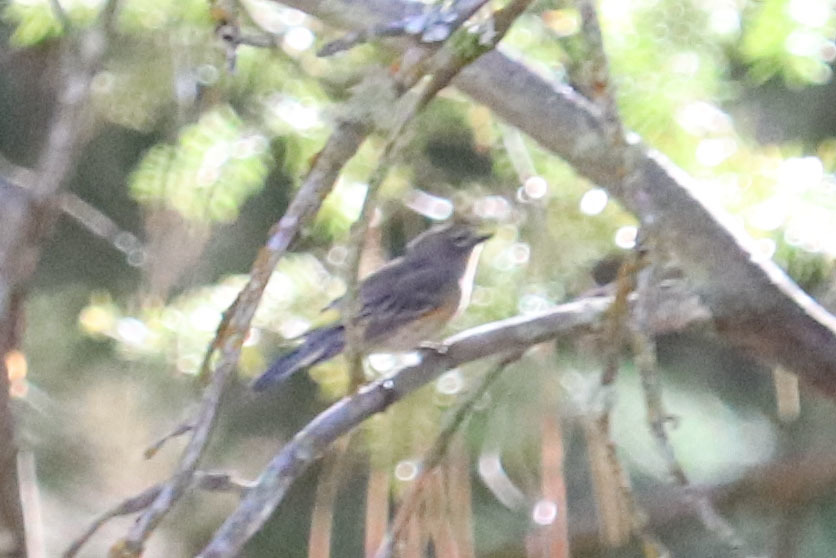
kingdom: Animalia
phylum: Chordata
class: Aves
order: Passeriformes
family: Parulidae
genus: Setophaga
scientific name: Setophaga coronata
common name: Myrtle warbler
